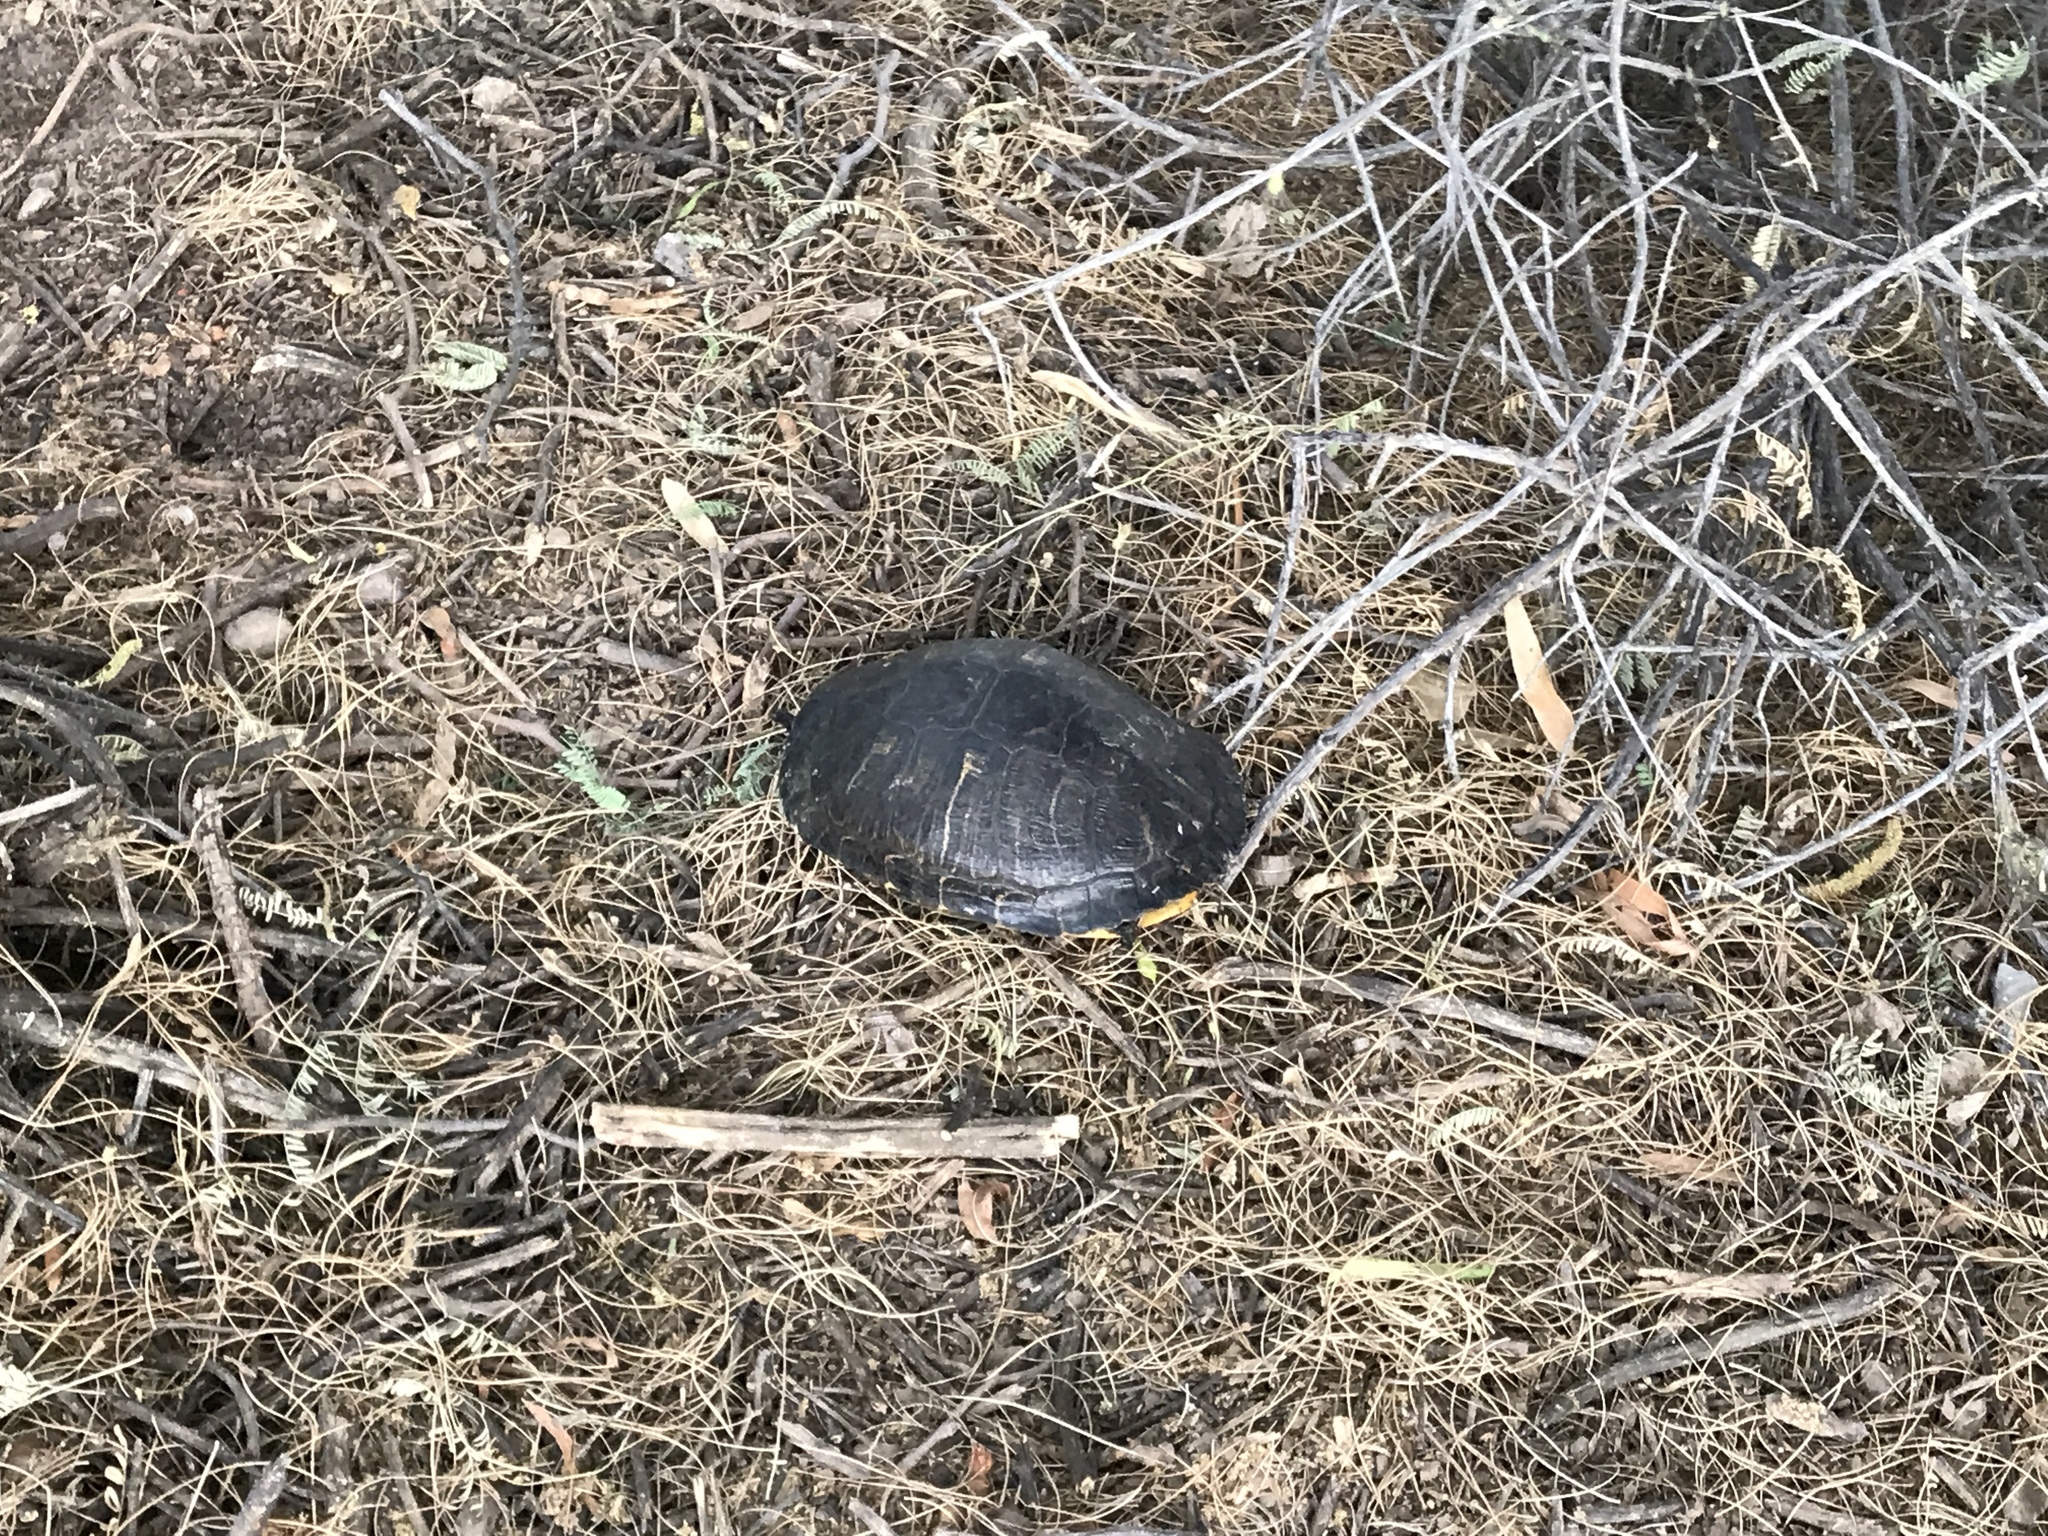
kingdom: Animalia
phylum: Chordata
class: Testudines
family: Emydidae
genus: Trachemys
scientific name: Trachemys scripta
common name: Slider
